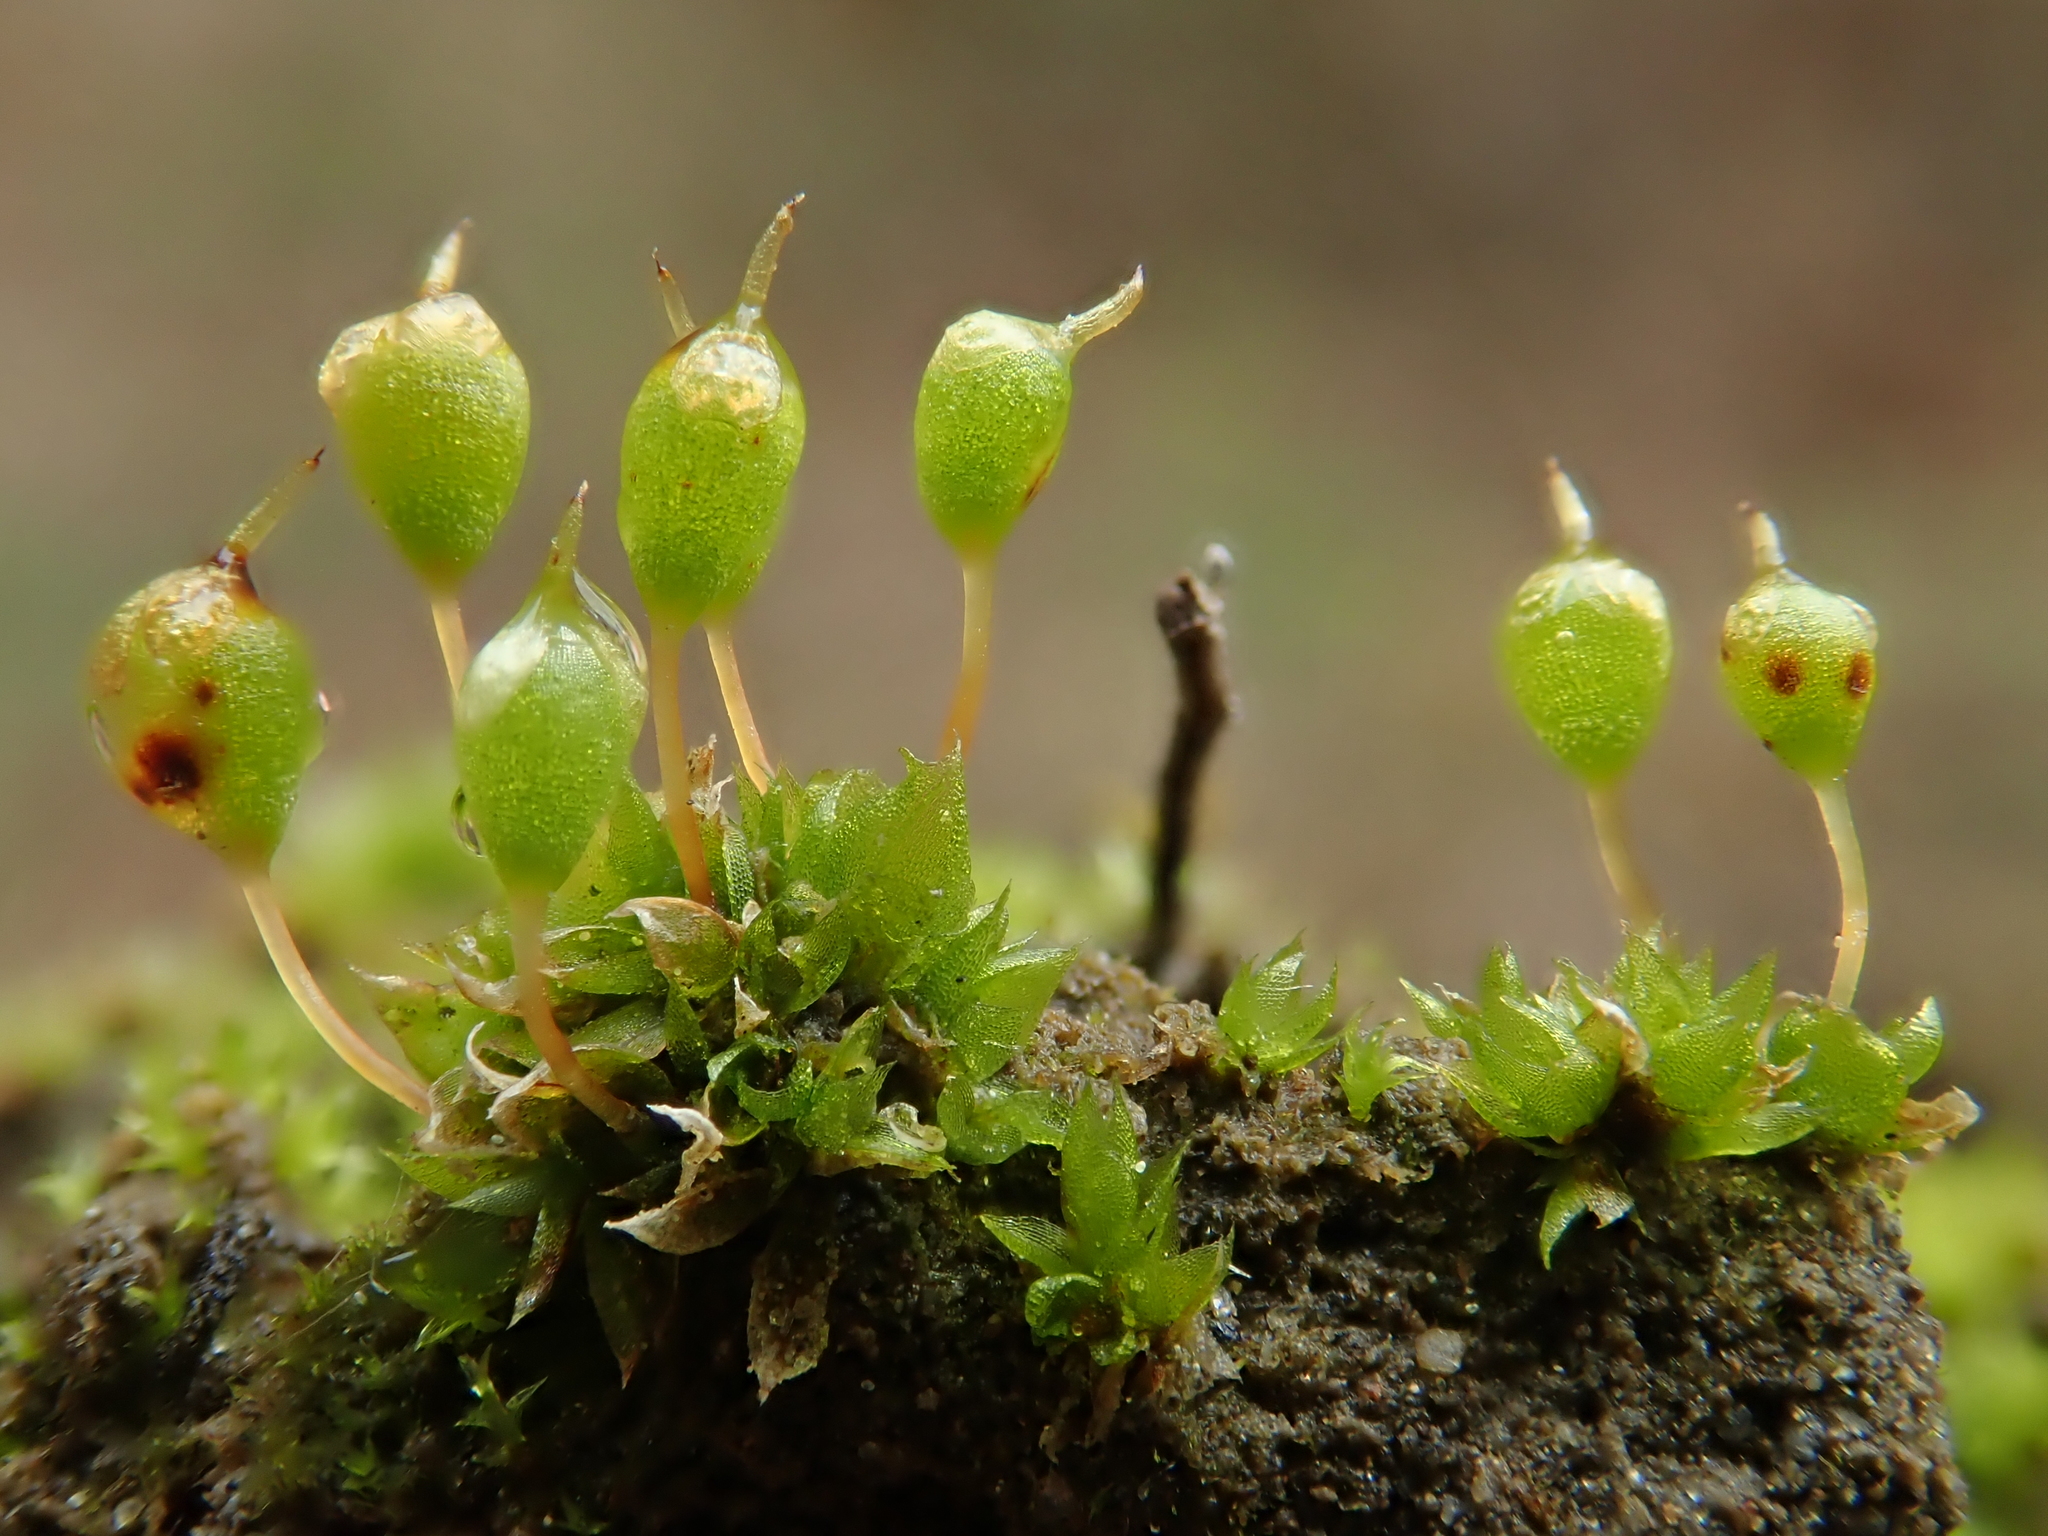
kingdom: Plantae
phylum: Bryophyta
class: Bryopsida
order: Funariales
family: Funariaceae
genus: Physcomitrium
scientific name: Physcomitrium pyriforme
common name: Common bladder-moss
